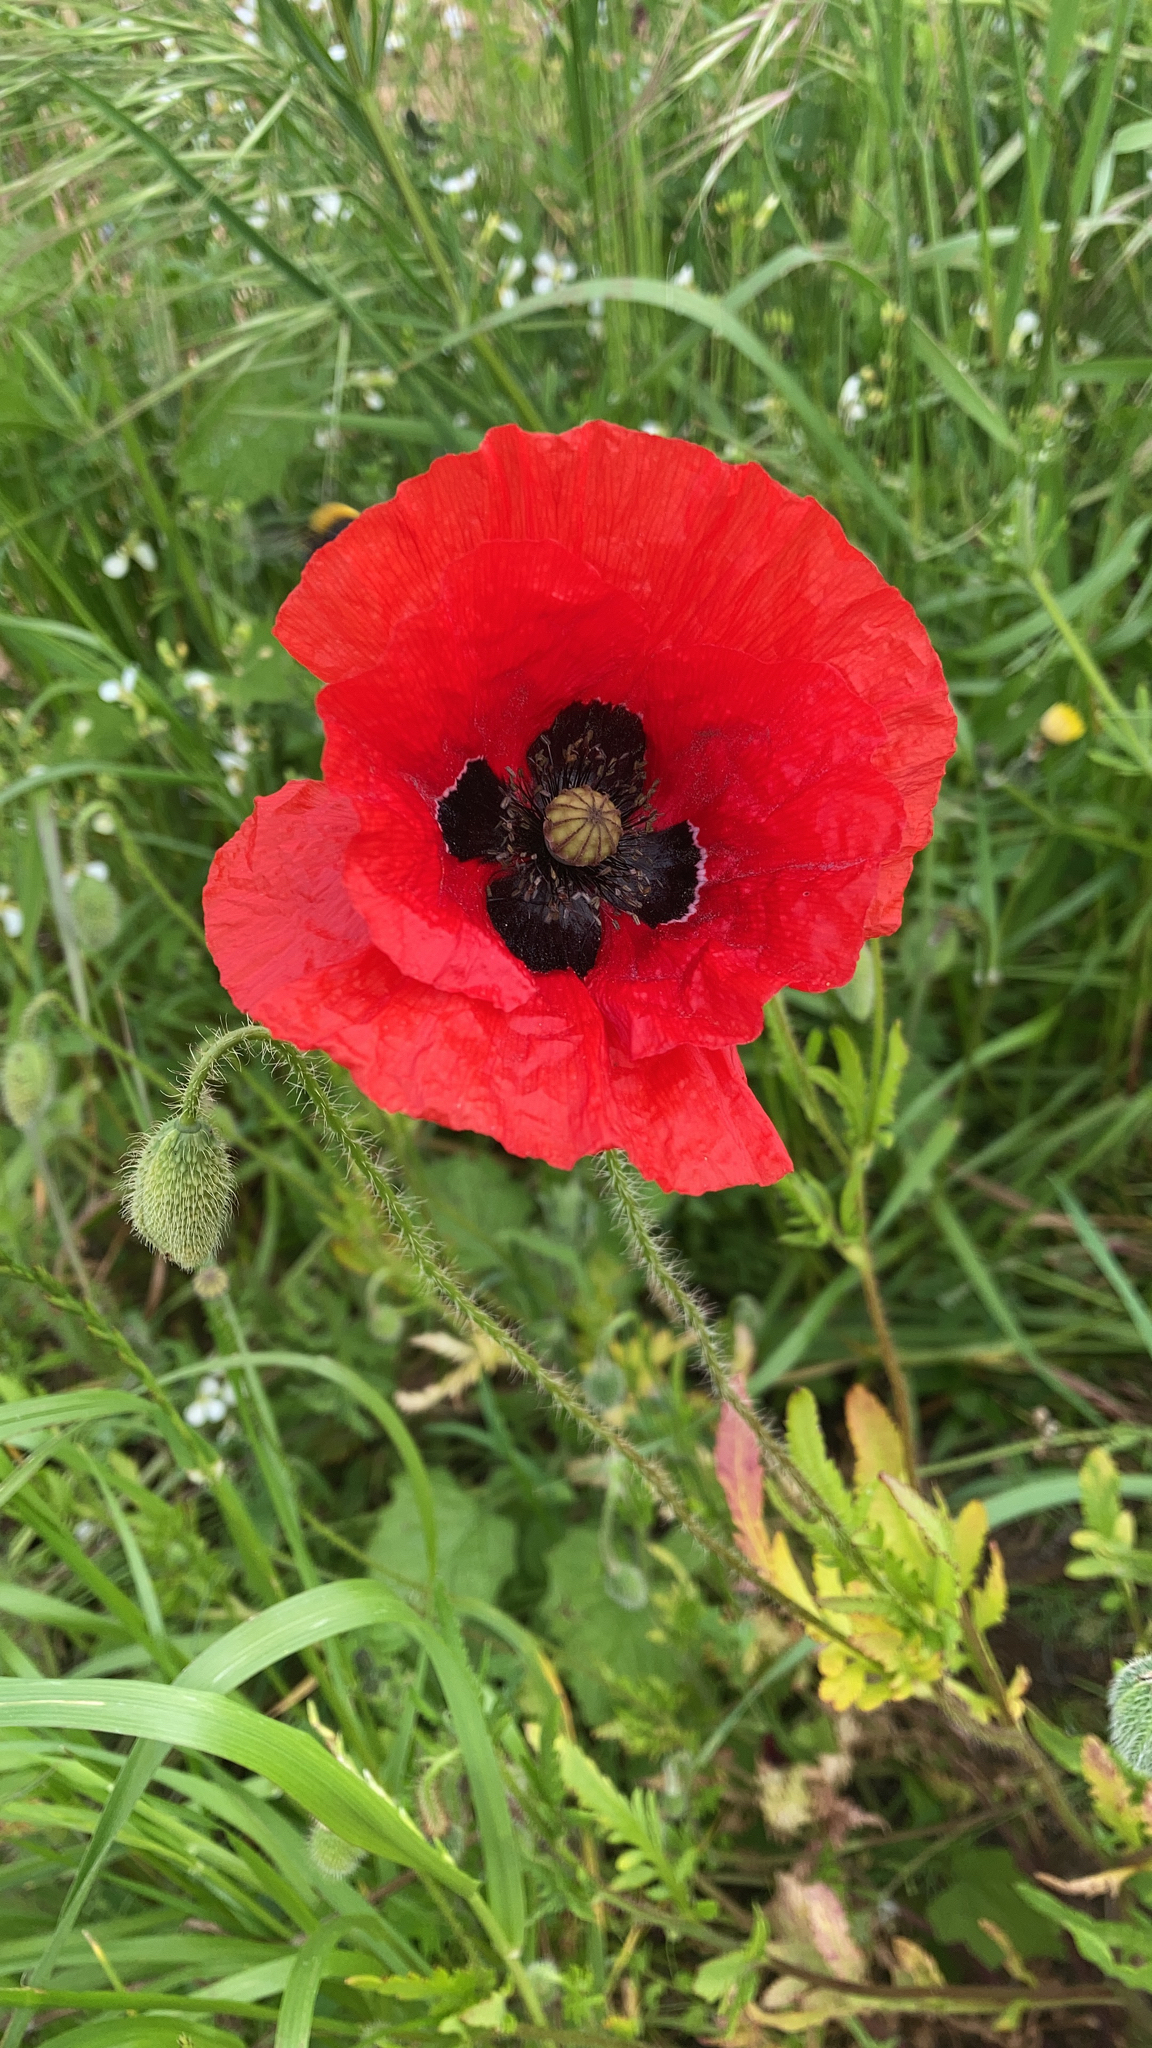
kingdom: Plantae
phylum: Tracheophyta
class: Magnoliopsida
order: Ranunculales
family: Papaveraceae
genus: Papaver
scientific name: Papaver rhoeas
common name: Corn poppy
